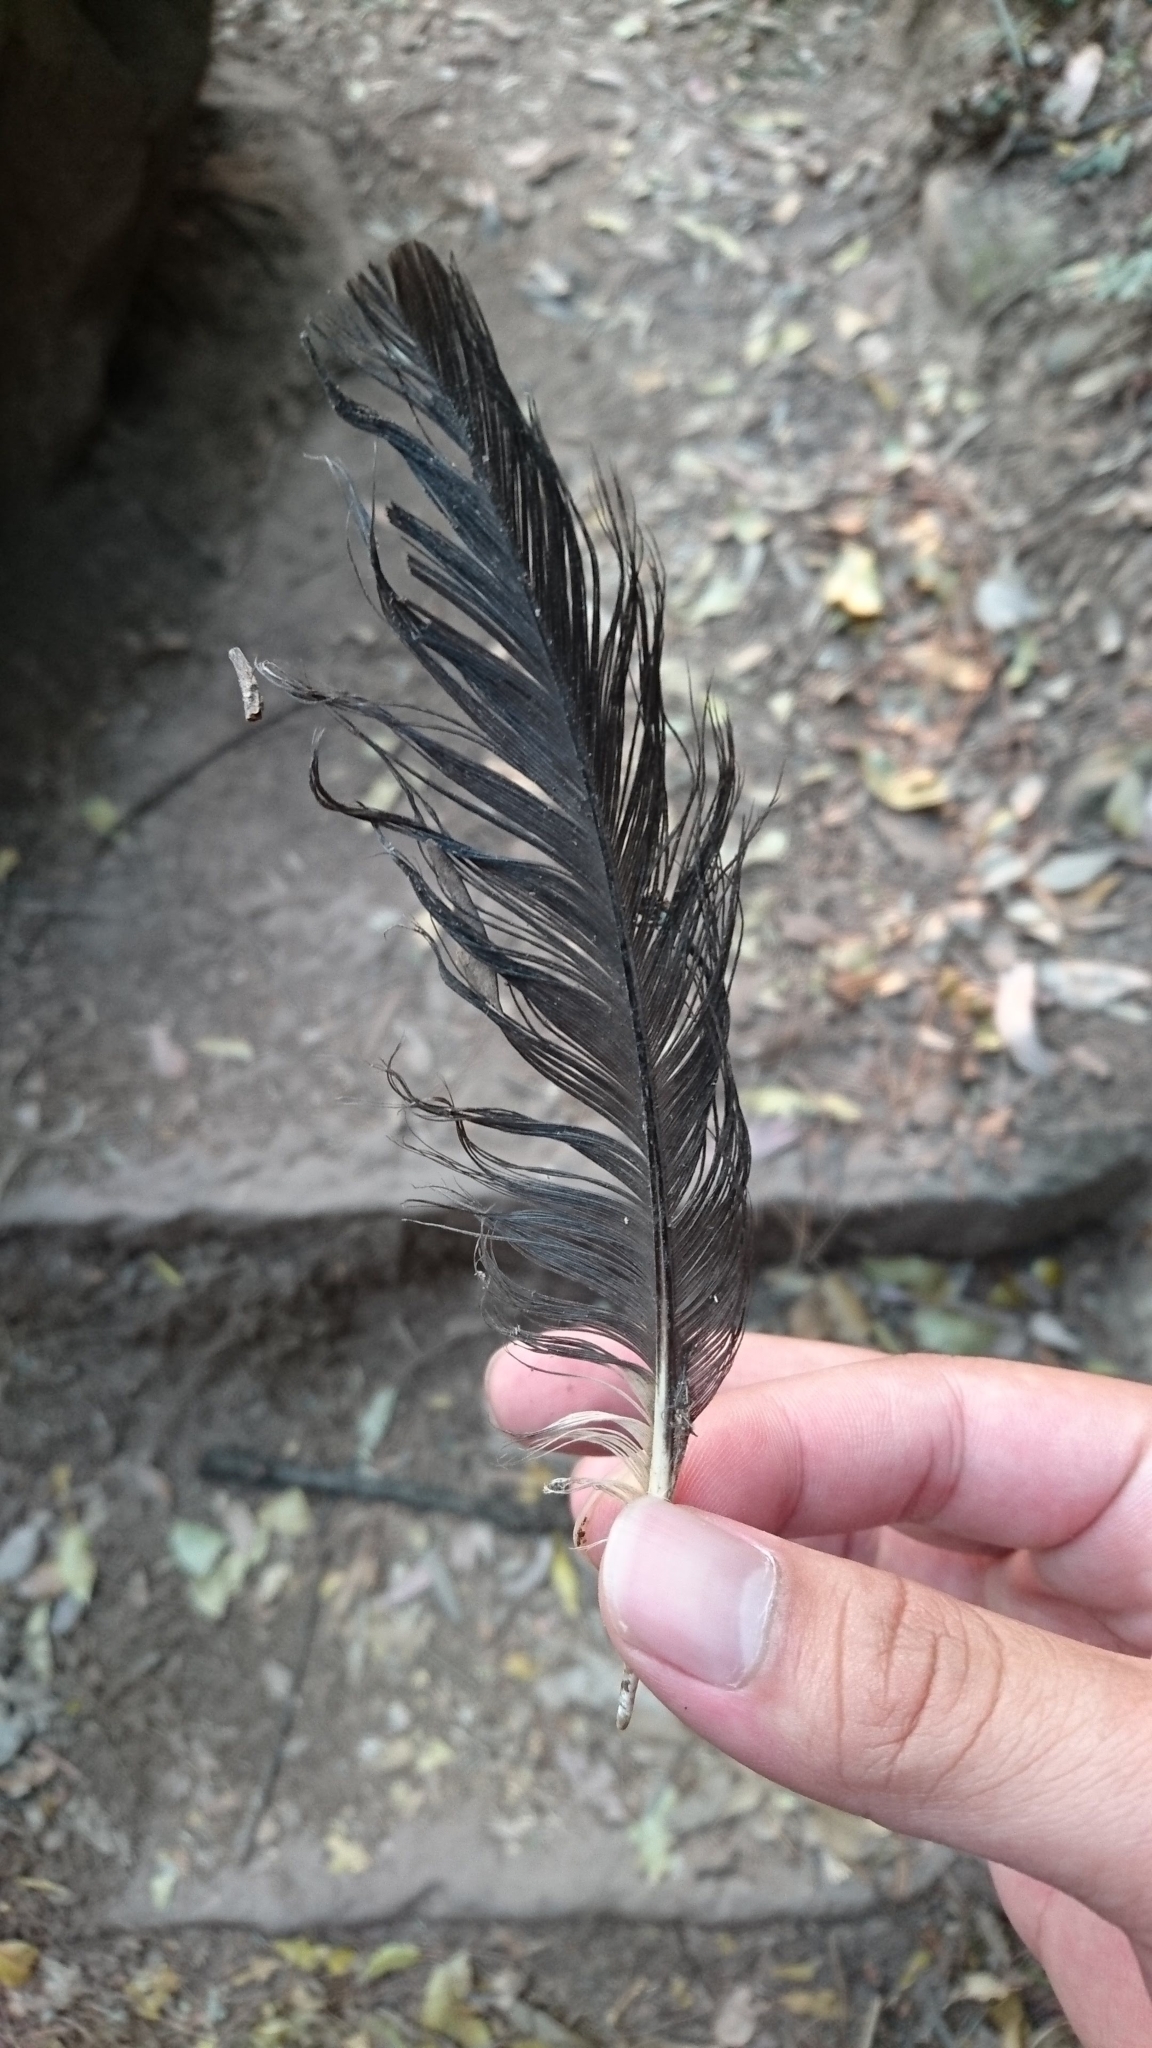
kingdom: Animalia
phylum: Chordata
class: Aves
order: Passeriformes
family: Cracticidae
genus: Strepera
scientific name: Strepera graculina
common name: Pied currawong
